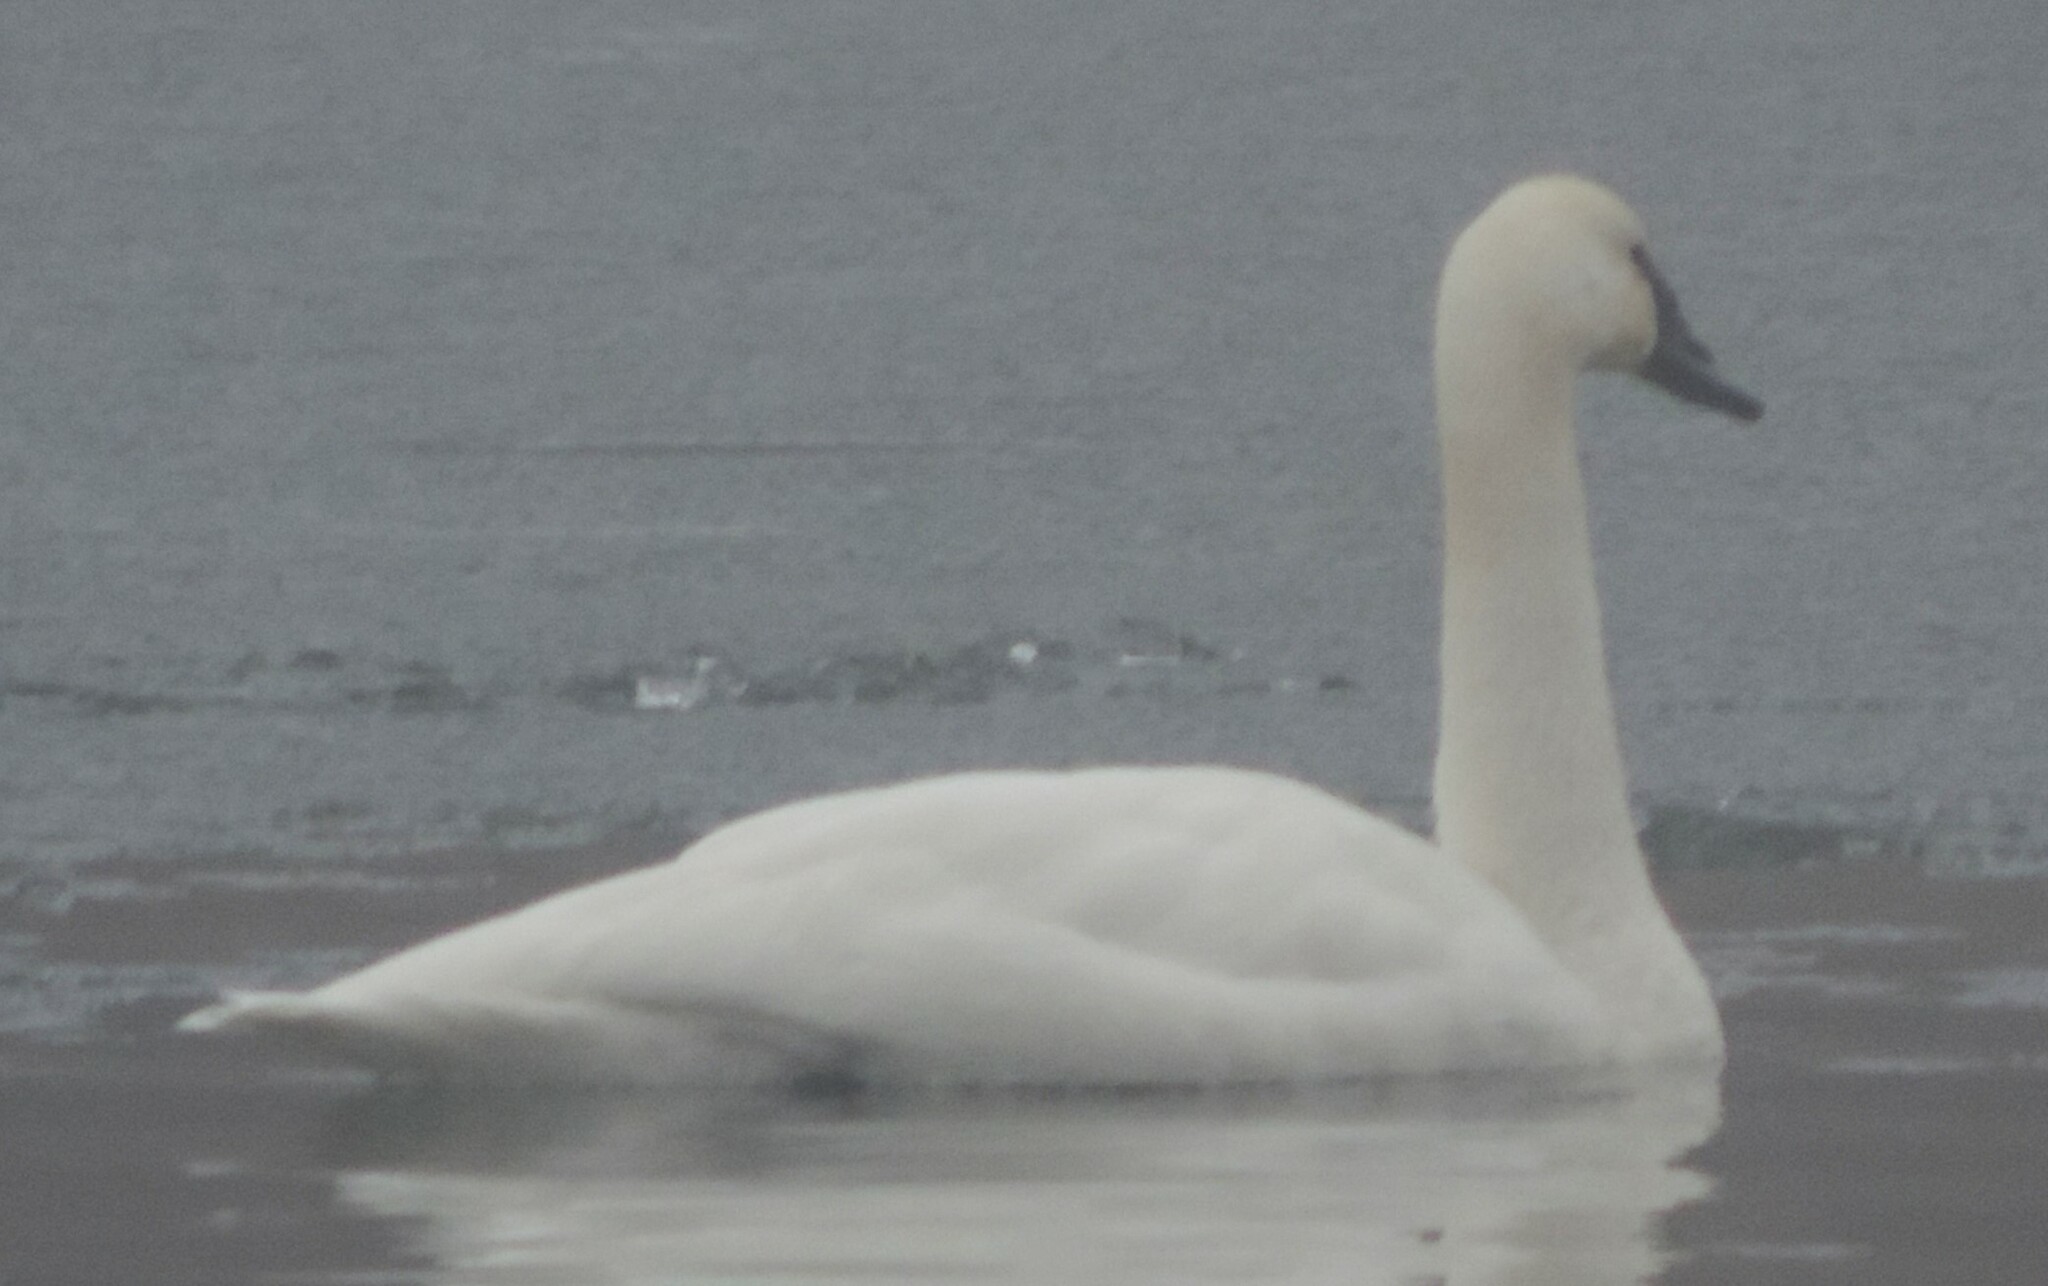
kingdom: Animalia
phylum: Chordata
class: Aves
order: Anseriformes
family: Anatidae
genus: Cygnus
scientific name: Cygnus buccinator
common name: Trumpeter swan
